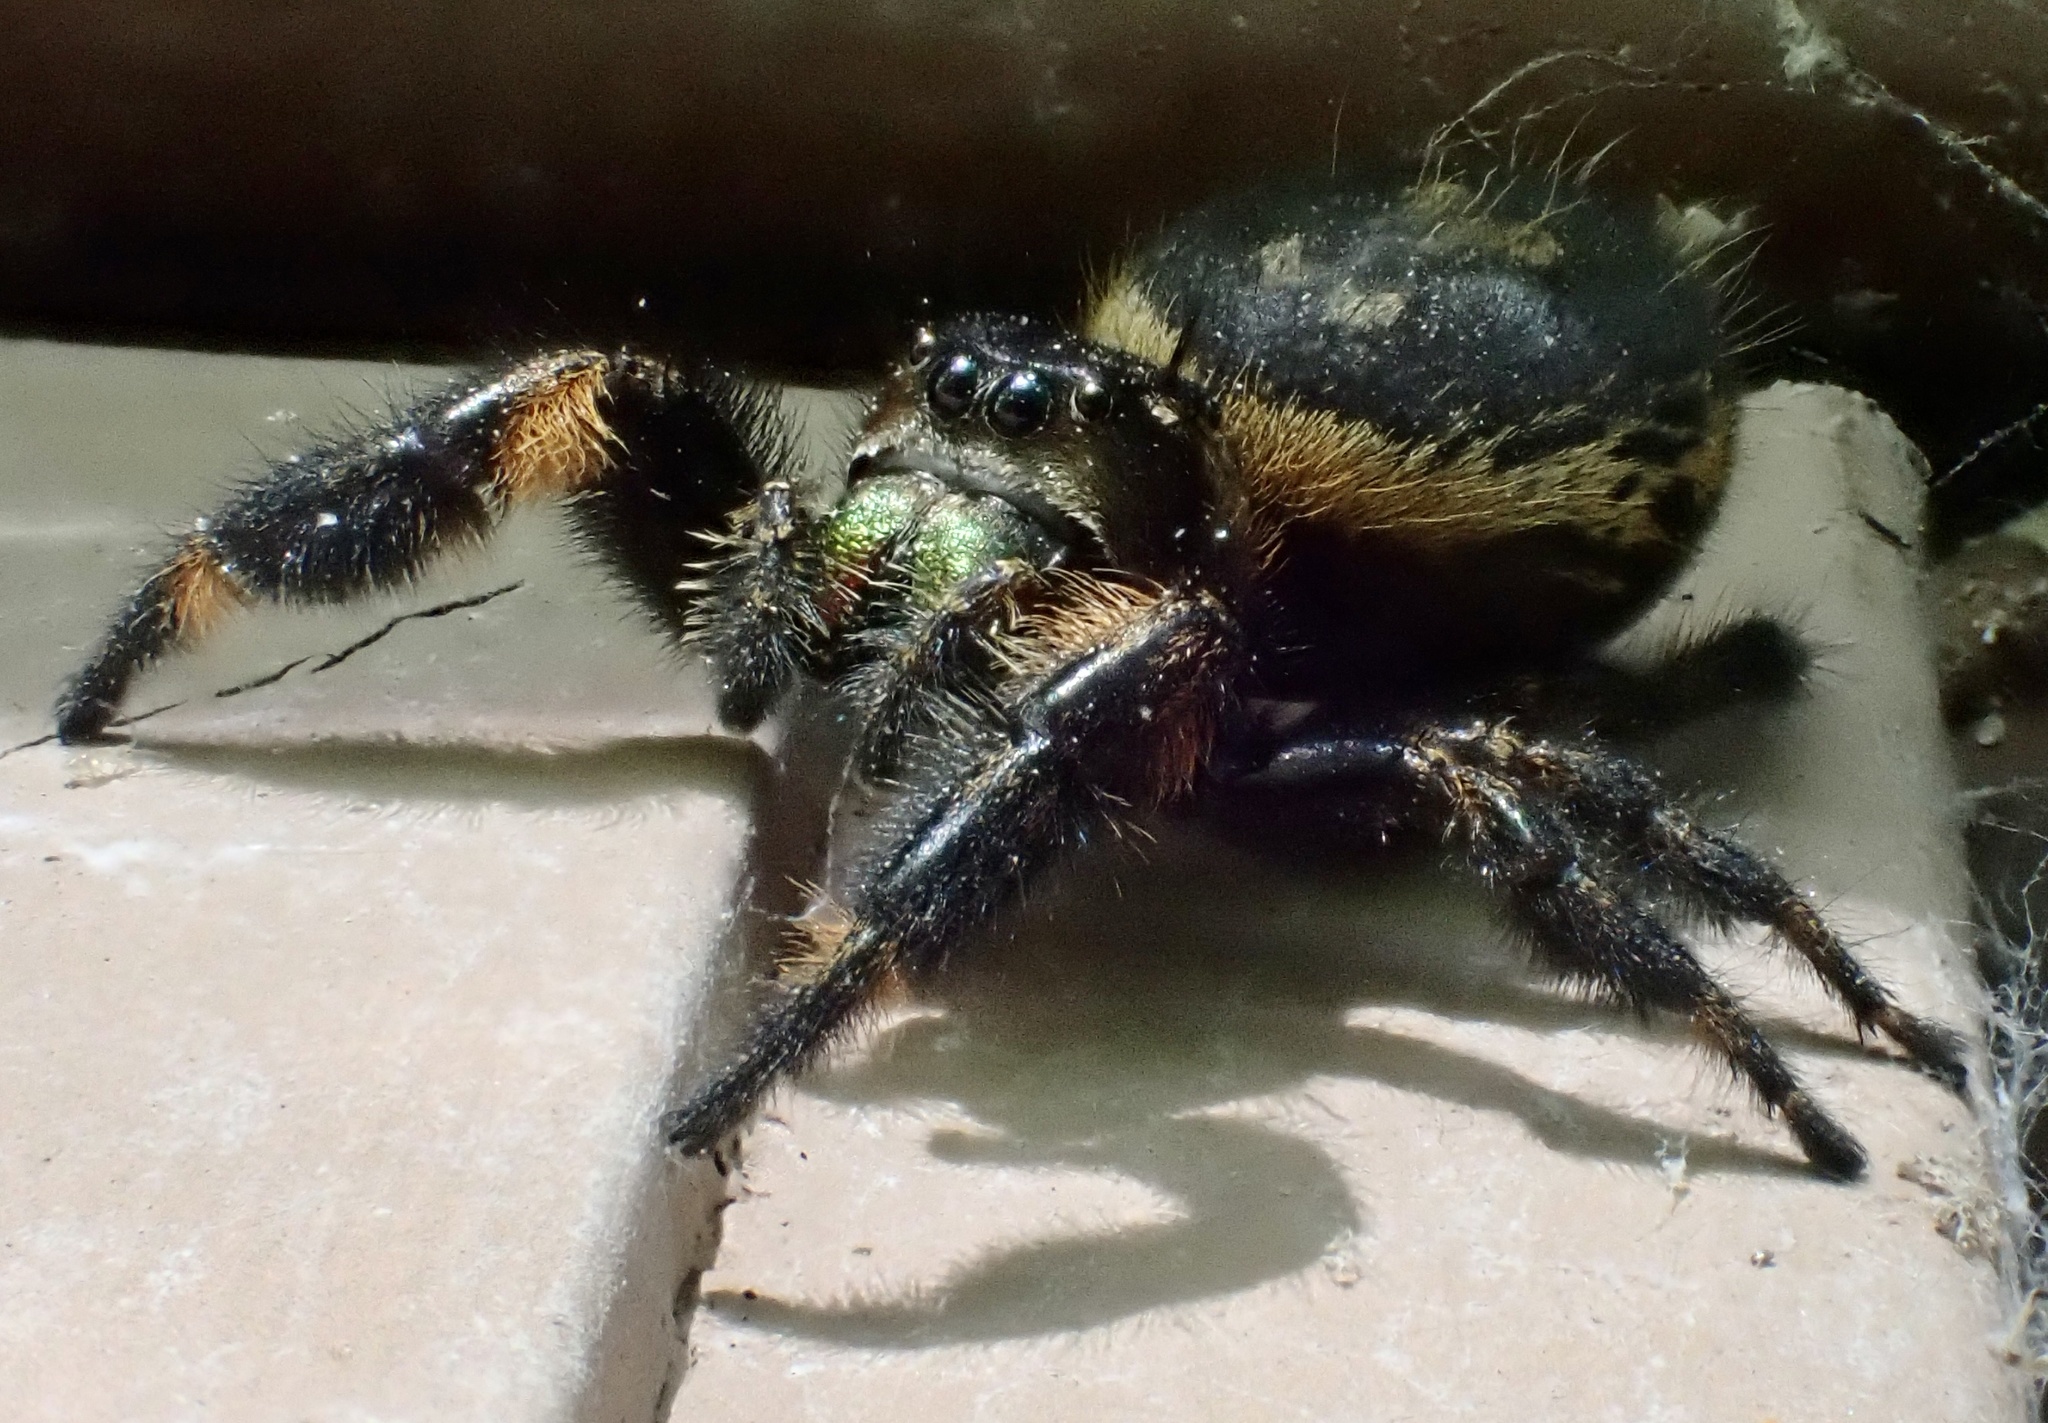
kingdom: Animalia
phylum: Arthropoda
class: Arachnida
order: Araneae
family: Salticidae
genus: Phidippus
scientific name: Phidippus otiosus
